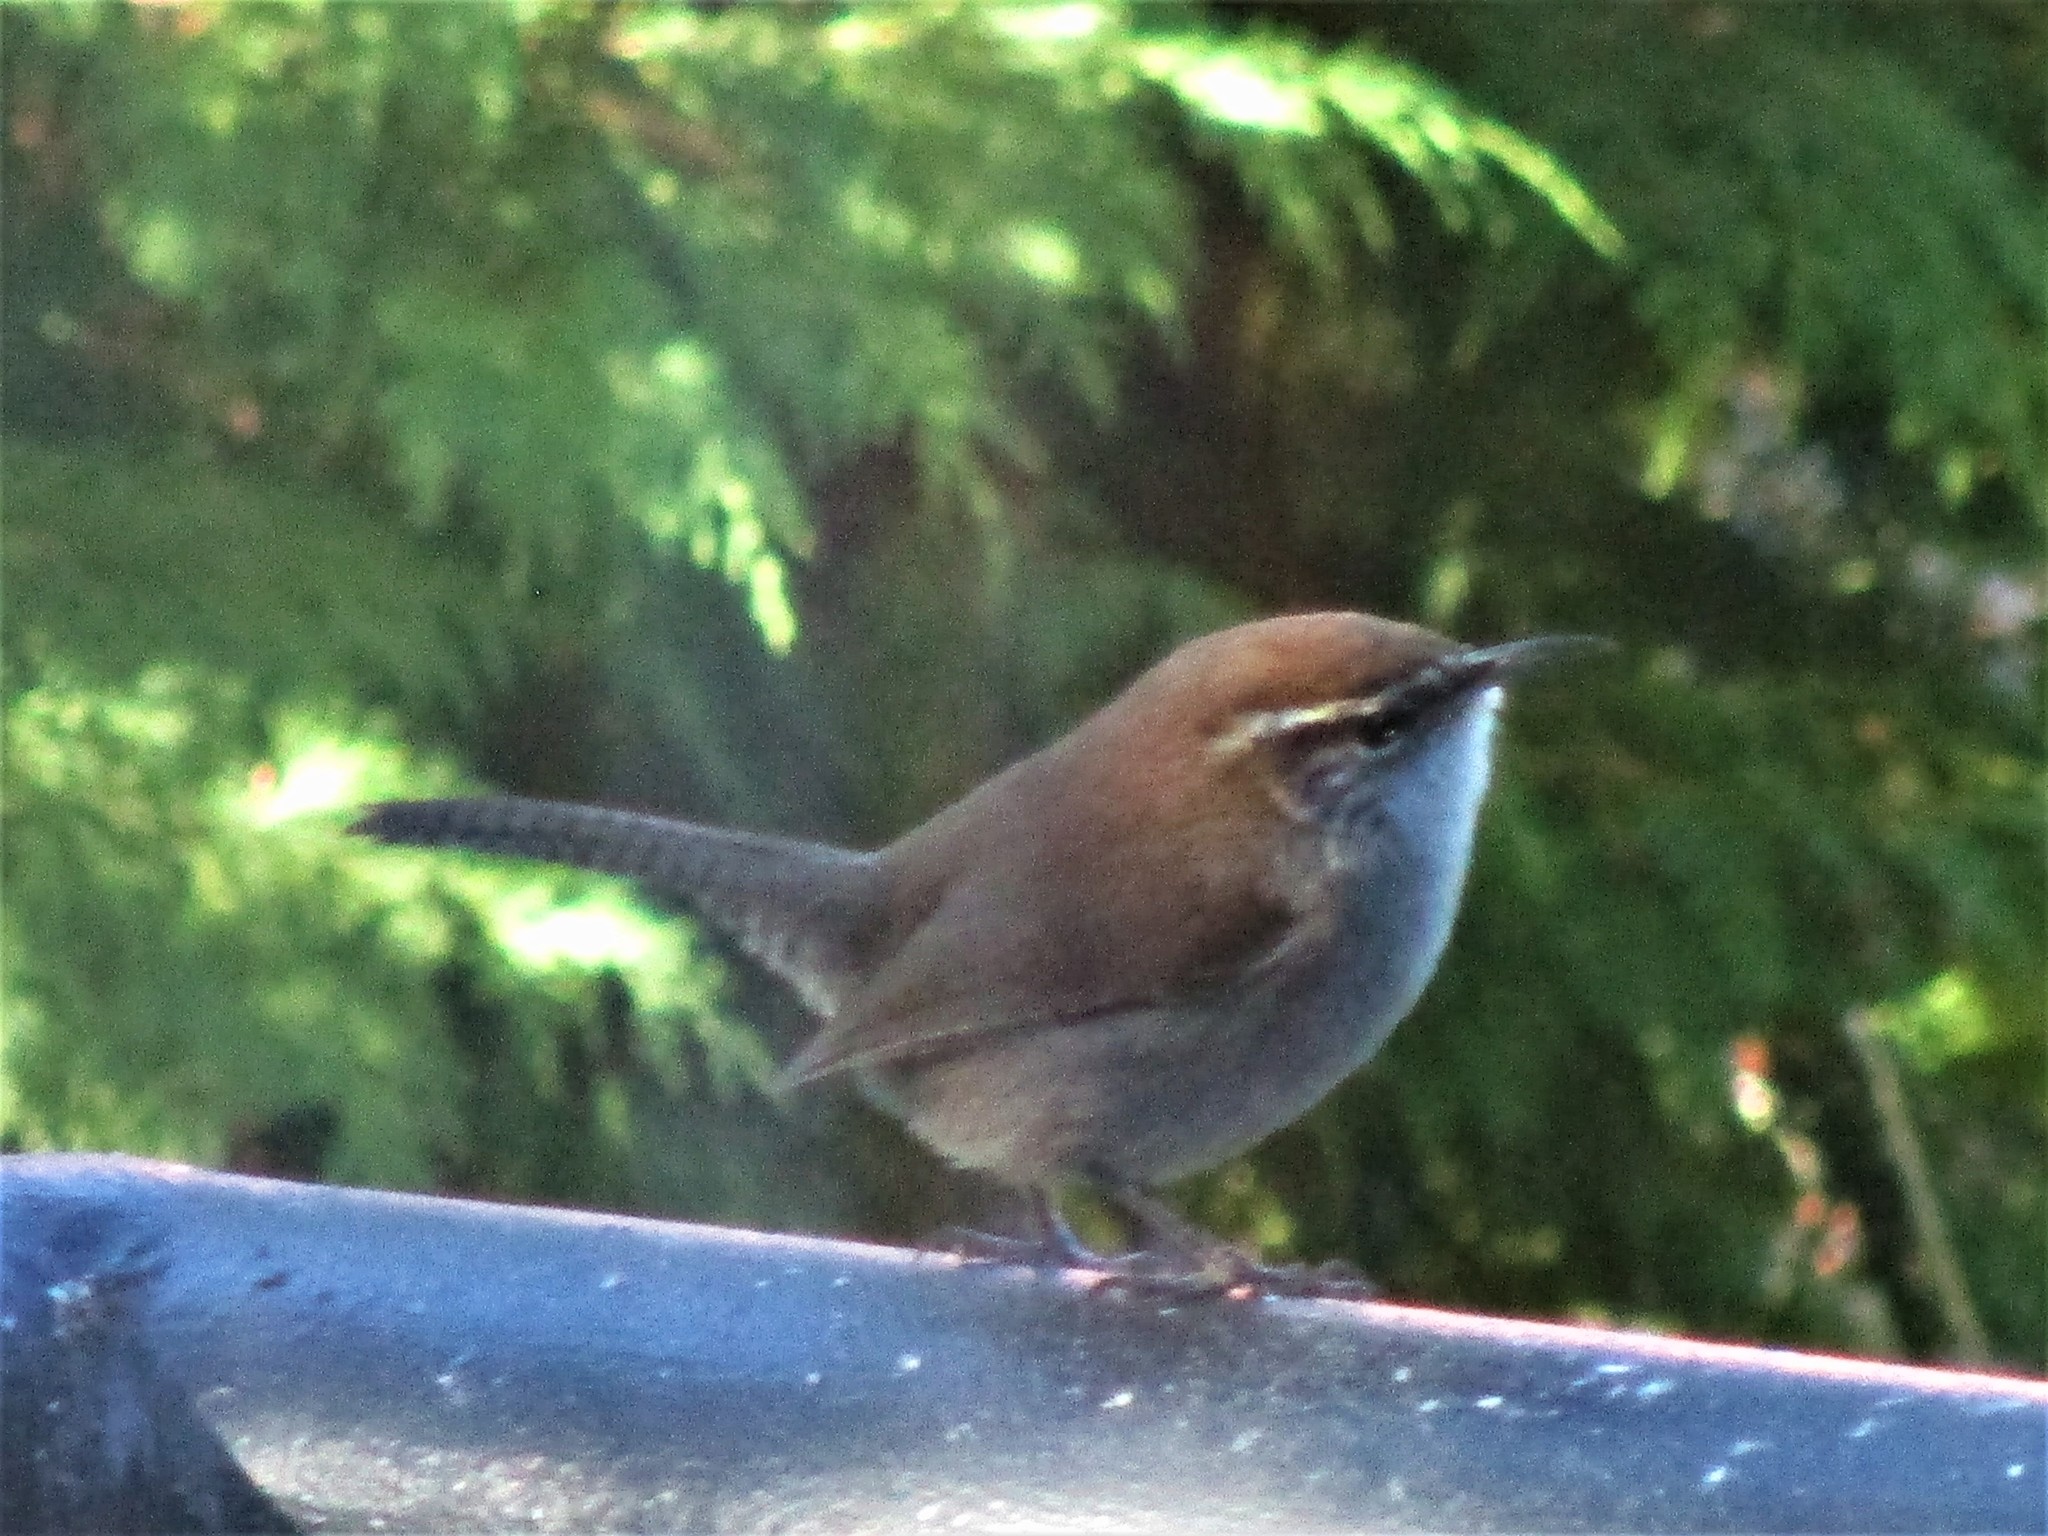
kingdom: Animalia
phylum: Chordata
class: Aves
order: Passeriformes
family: Troglodytidae
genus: Thryomanes
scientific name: Thryomanes bewickii
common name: Bewick's wren
